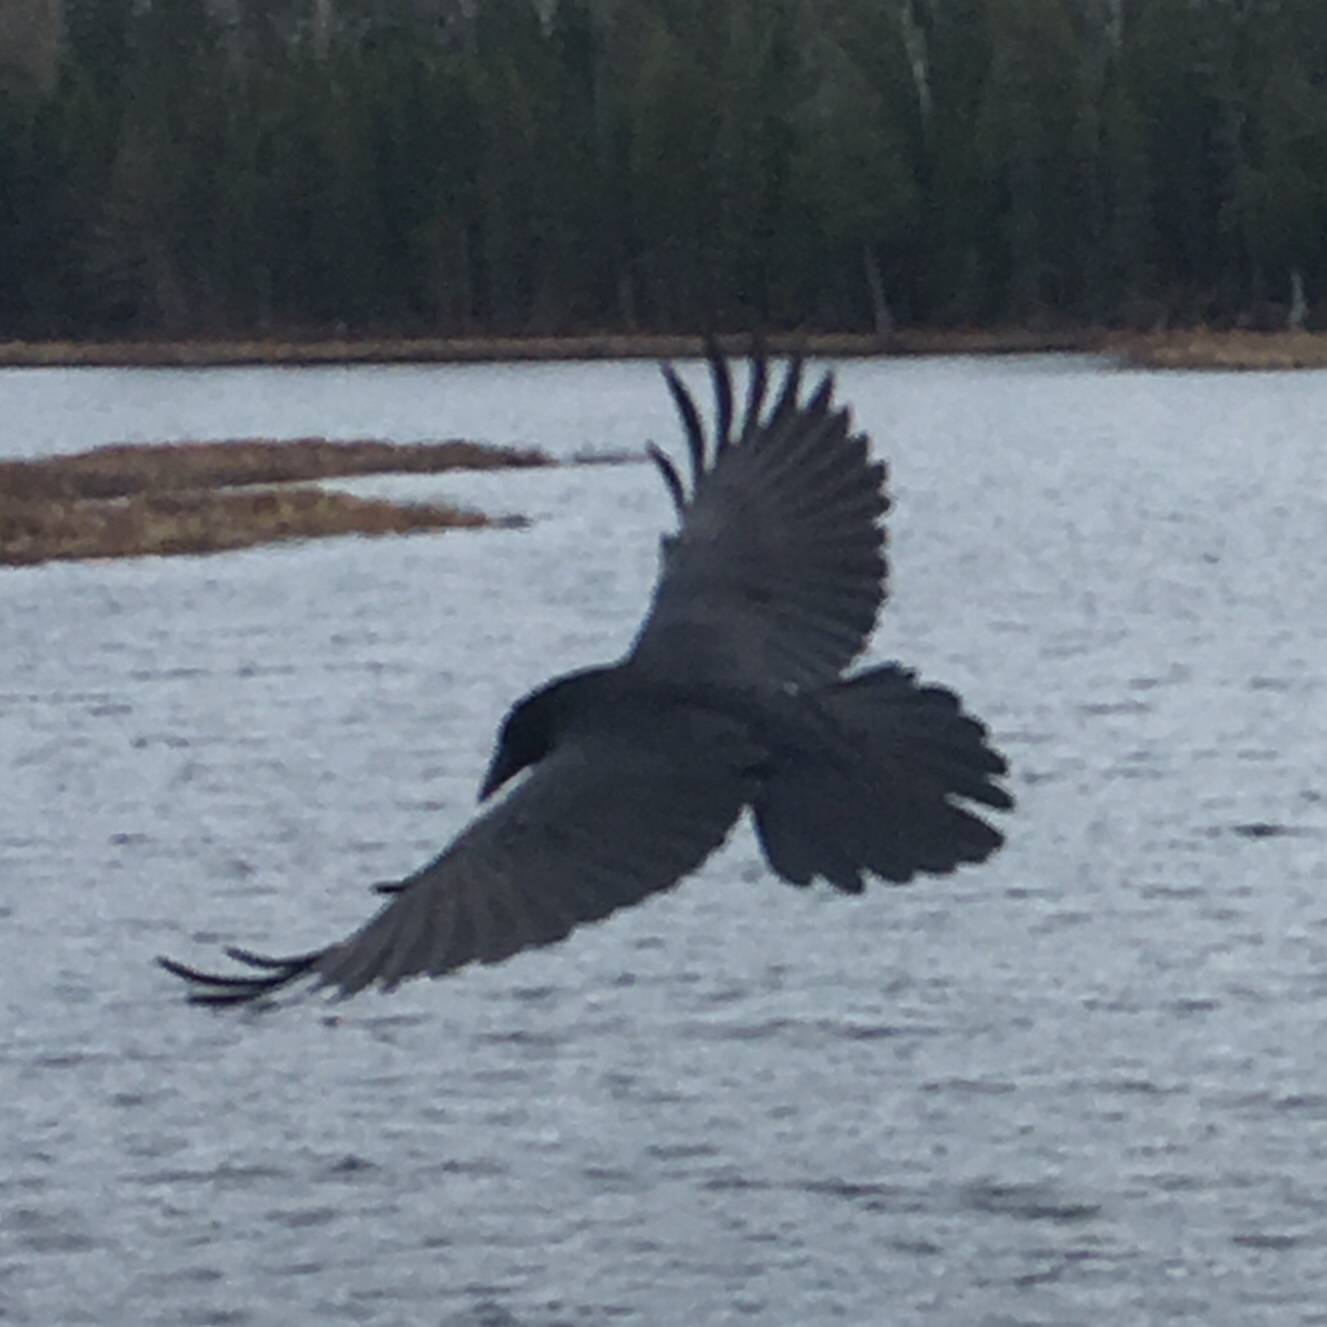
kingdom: Animalia
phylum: Chordata
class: Aves
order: Passeriformes
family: Corvidae
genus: Corvus
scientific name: Corvus corax
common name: Common raven
